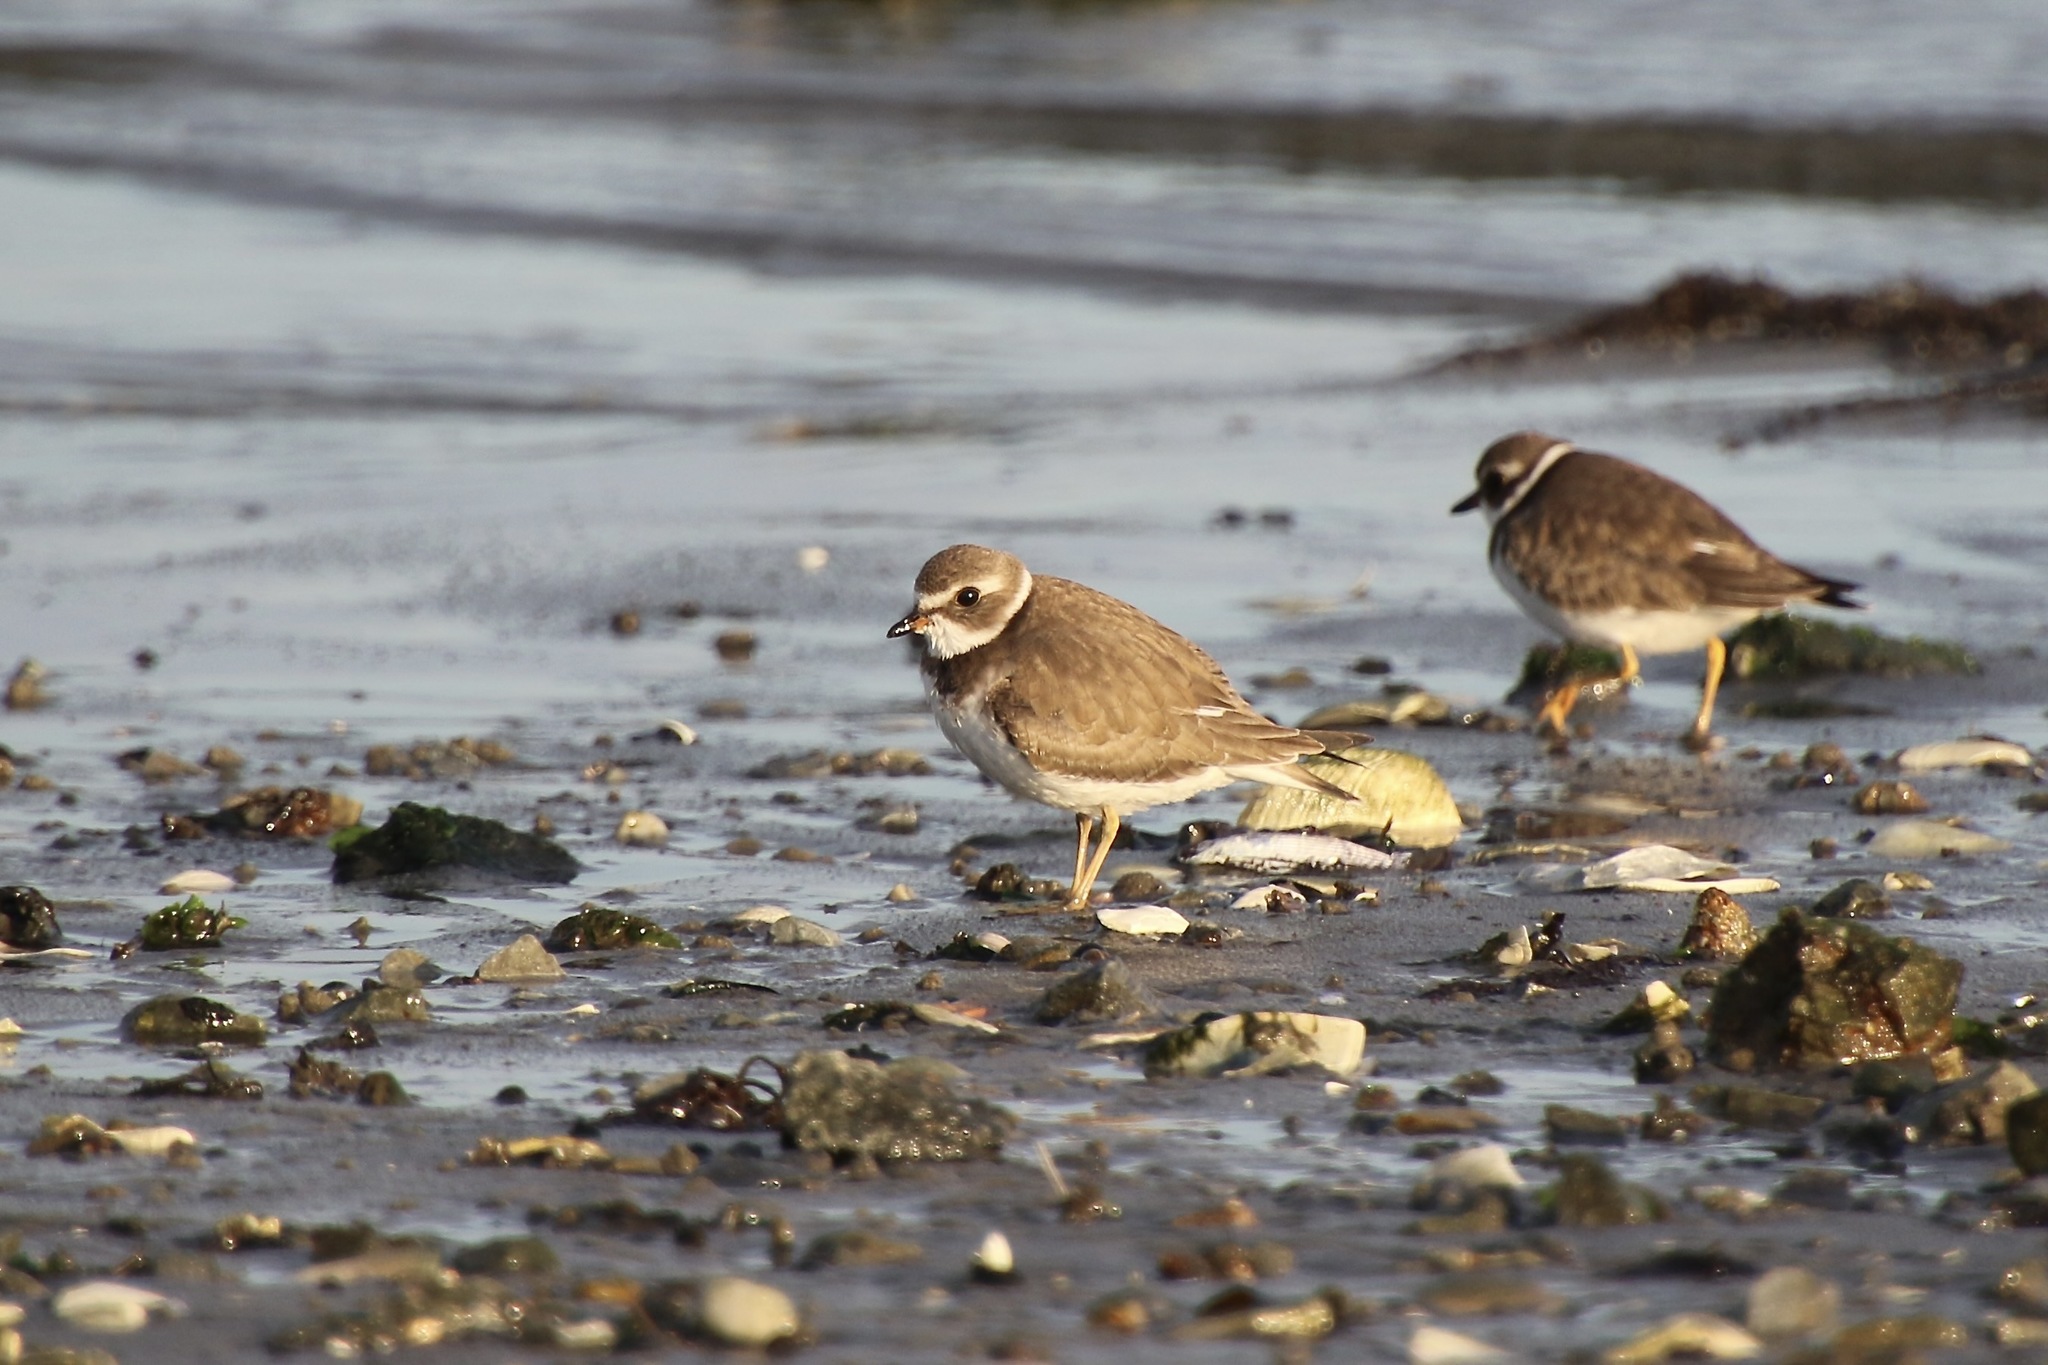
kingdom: Animalia
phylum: Chordata
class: Aves
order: Charadriiformes
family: Charadriidae
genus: Charadrius
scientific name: Charadrius semipalmatus
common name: Semipalmated plover
